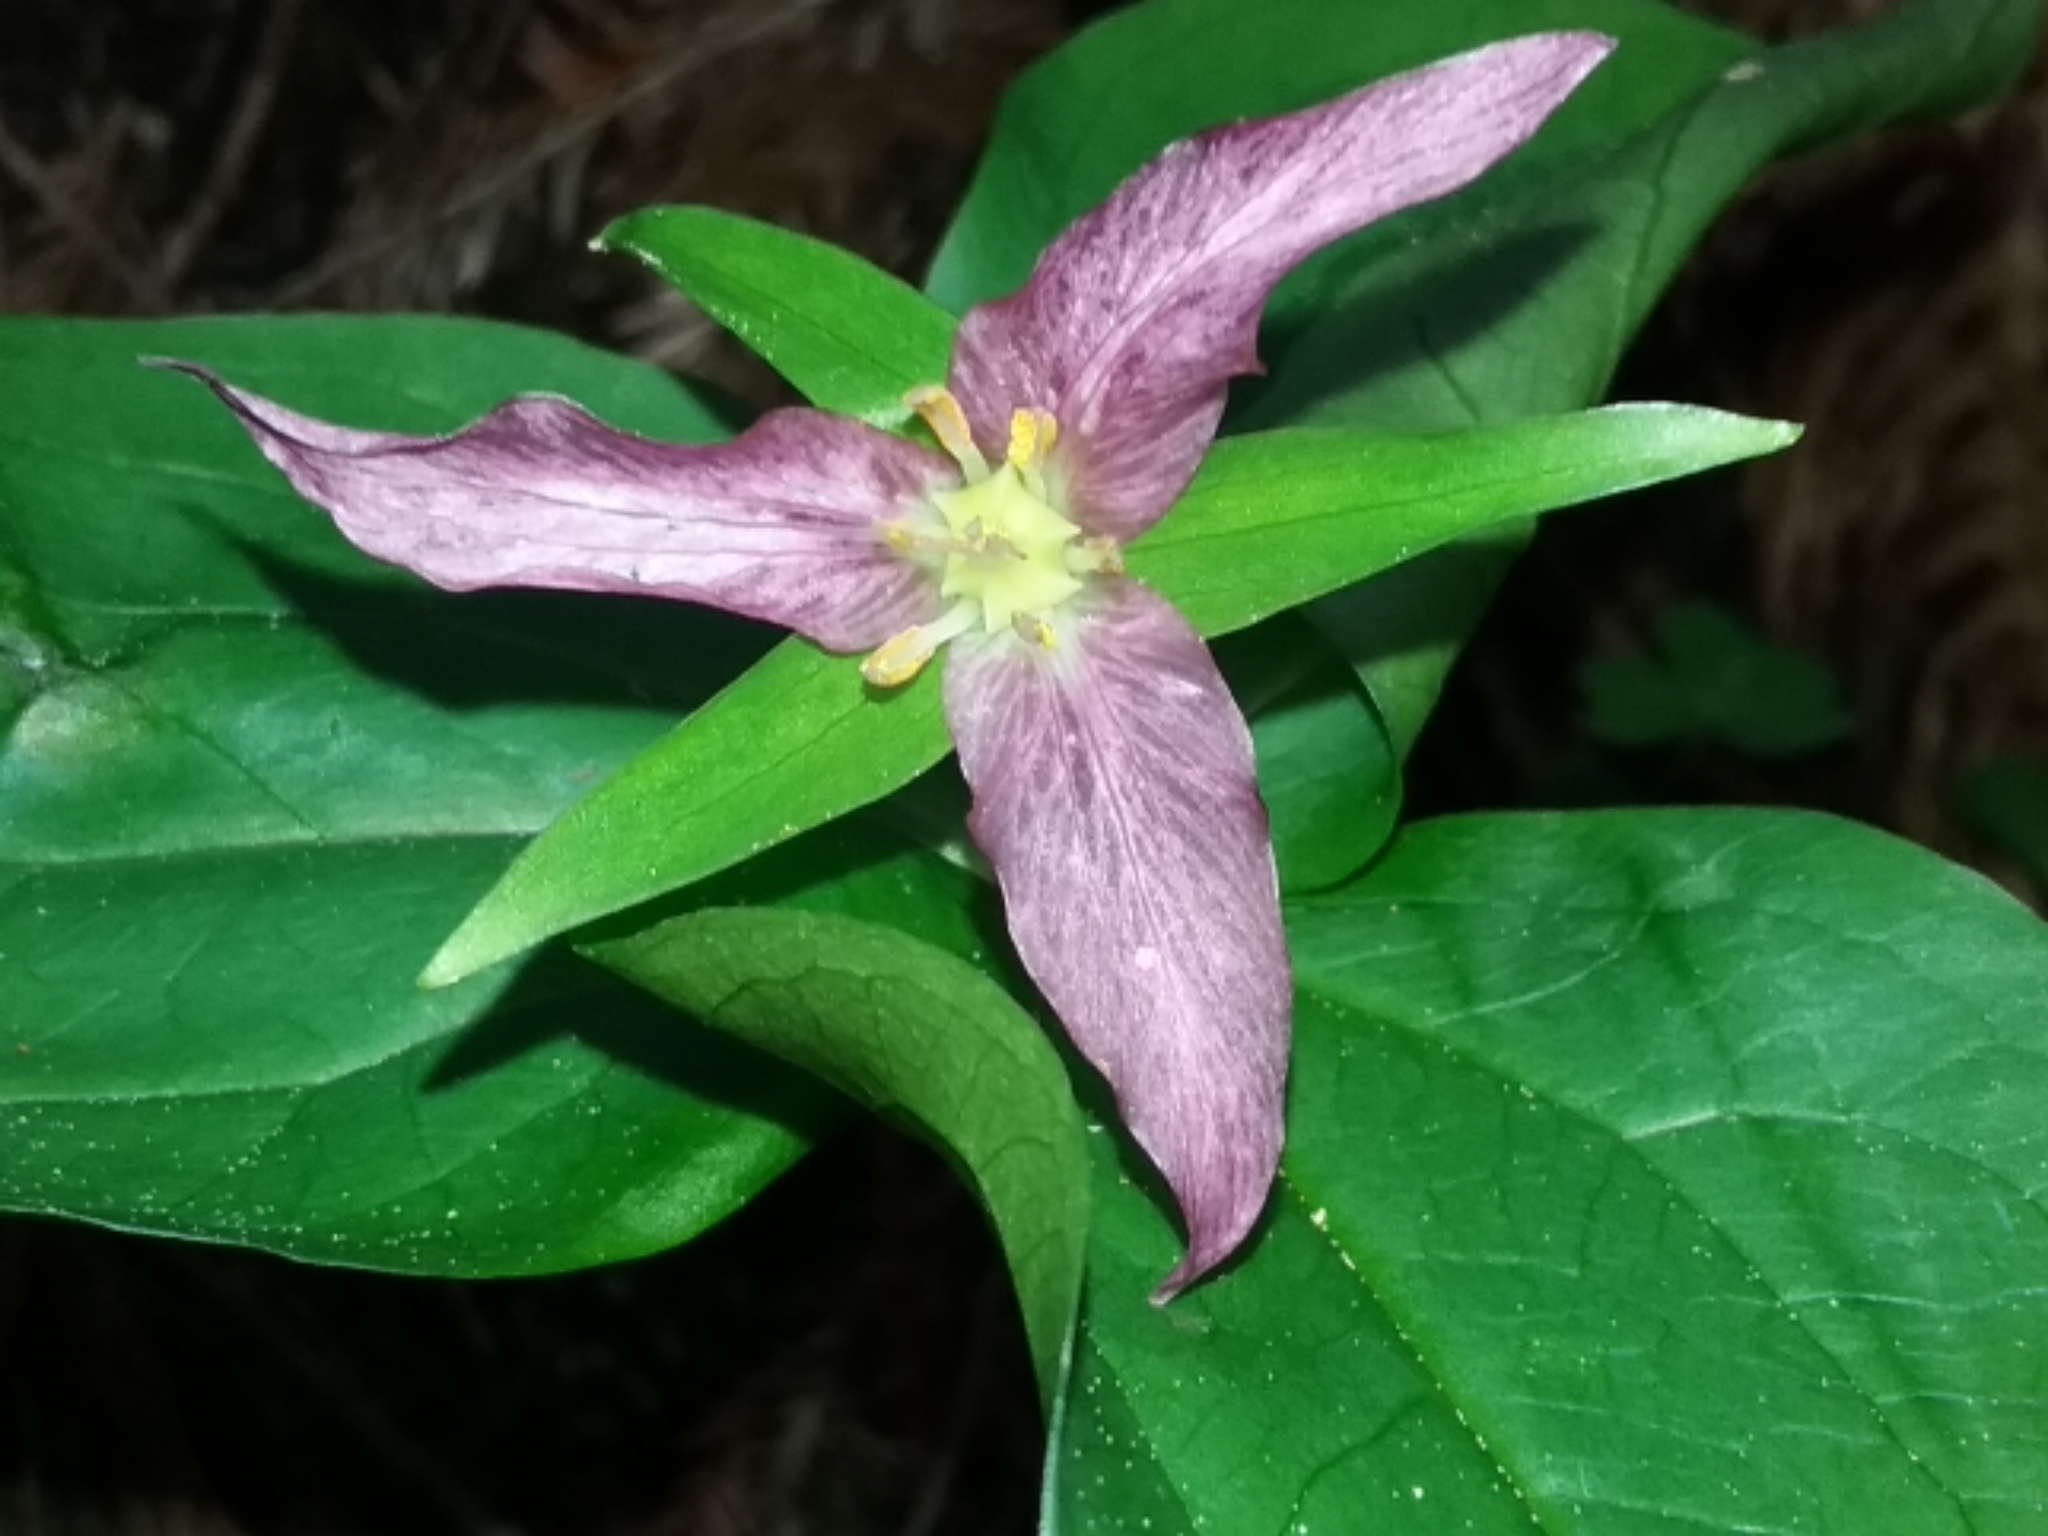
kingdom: Plantae
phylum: Tracheophyta
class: Liliopsida
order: Liliales
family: Melanthiaceae
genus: Trillium
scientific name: Trillium ovatum
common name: Pacific trillium
